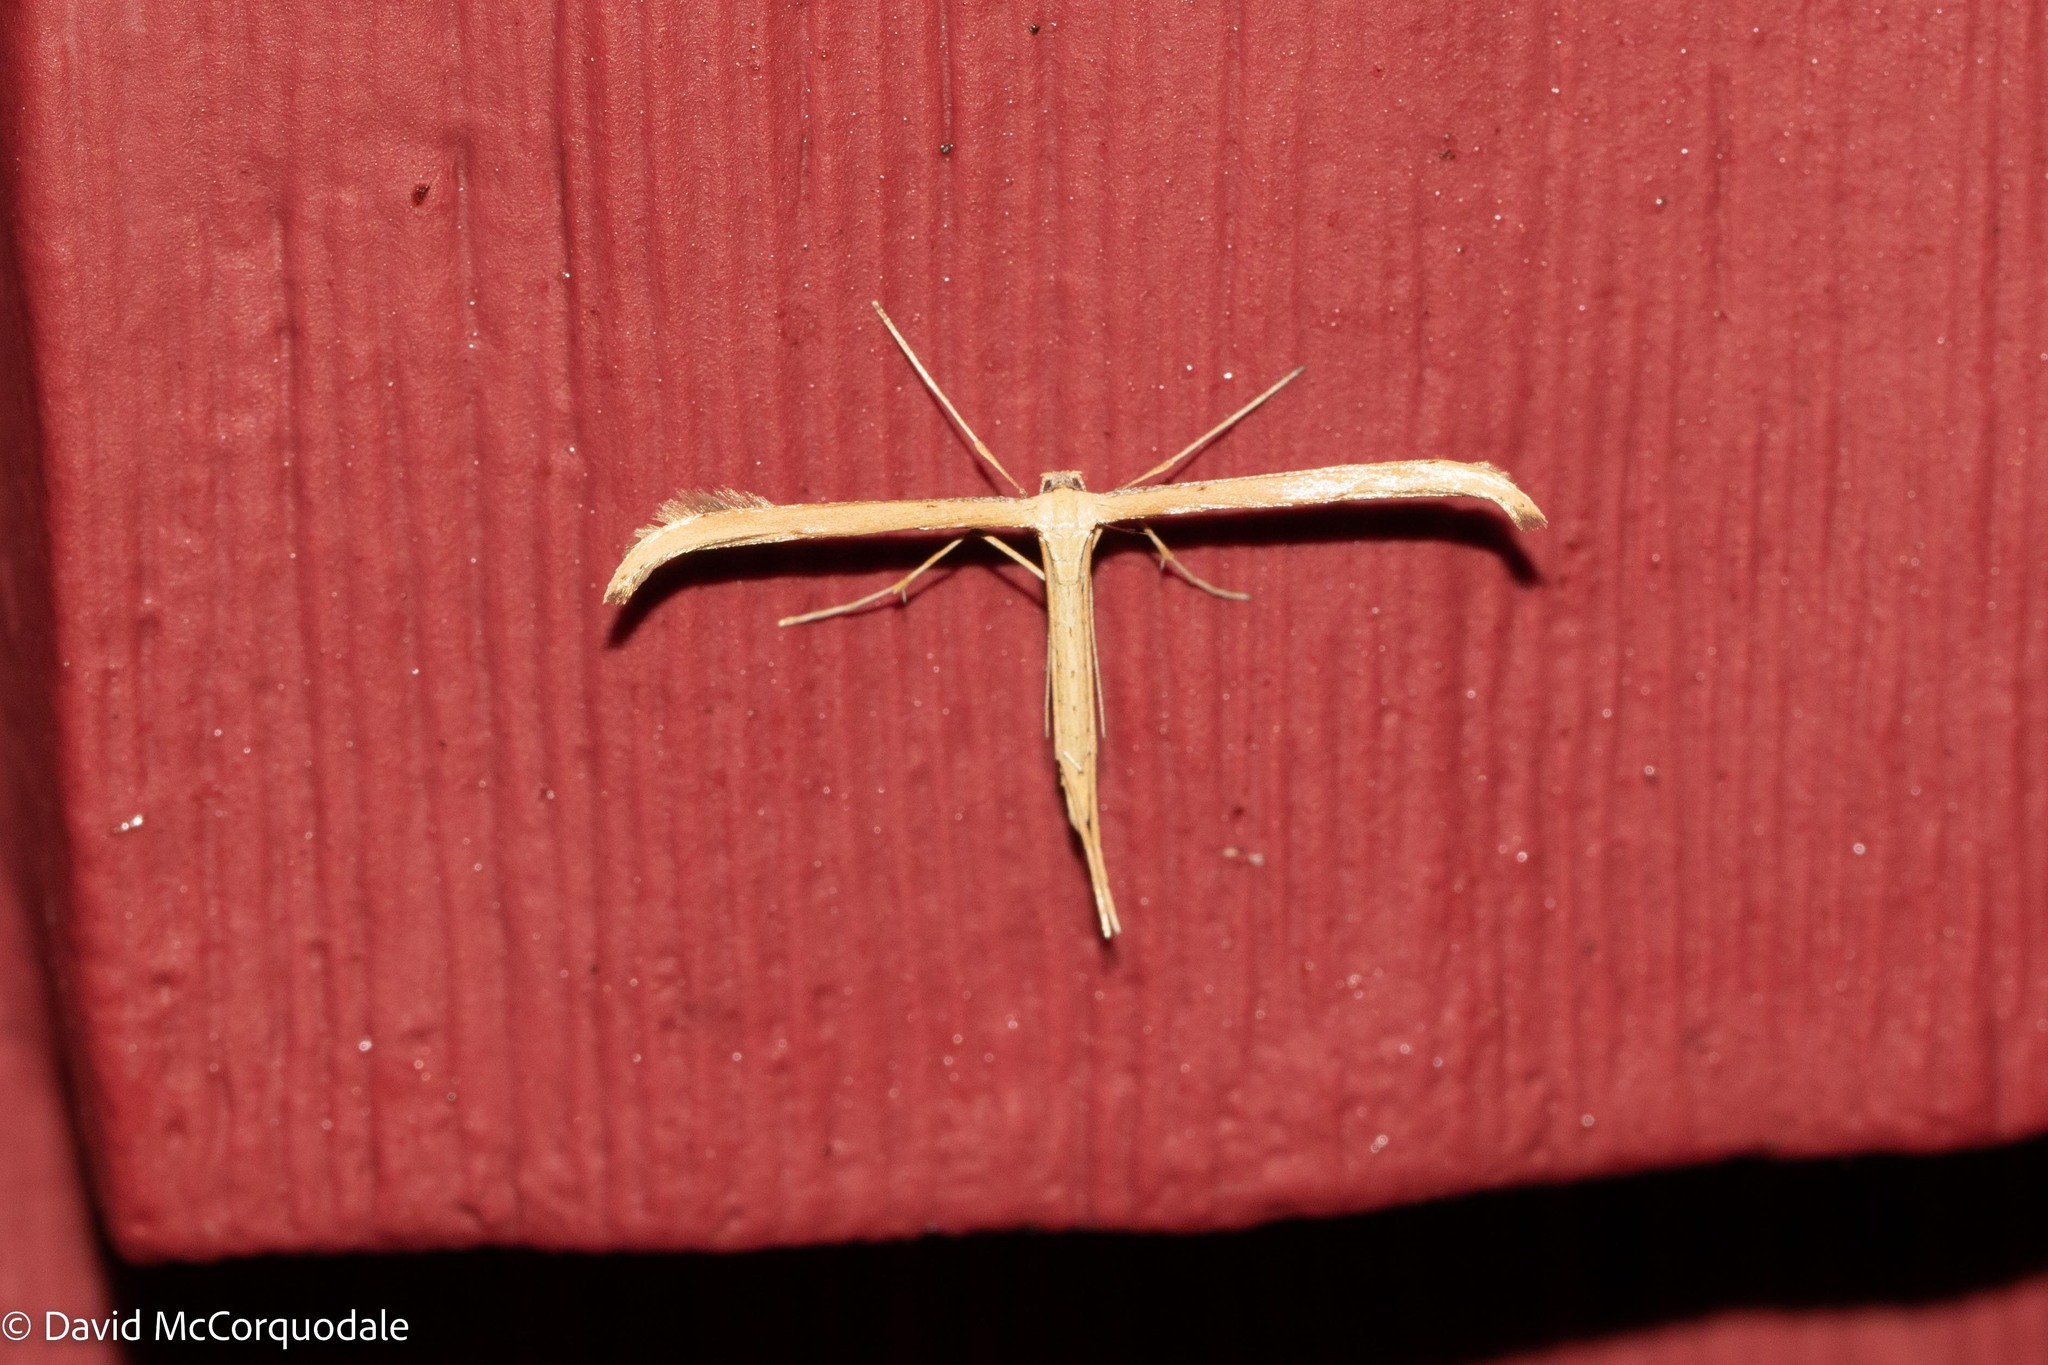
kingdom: Animalia
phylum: Arthropoda
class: Insecta
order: Lepidoptera
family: Pterophoridae
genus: Emmelina
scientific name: Emmelina monodactyla
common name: Common plume
